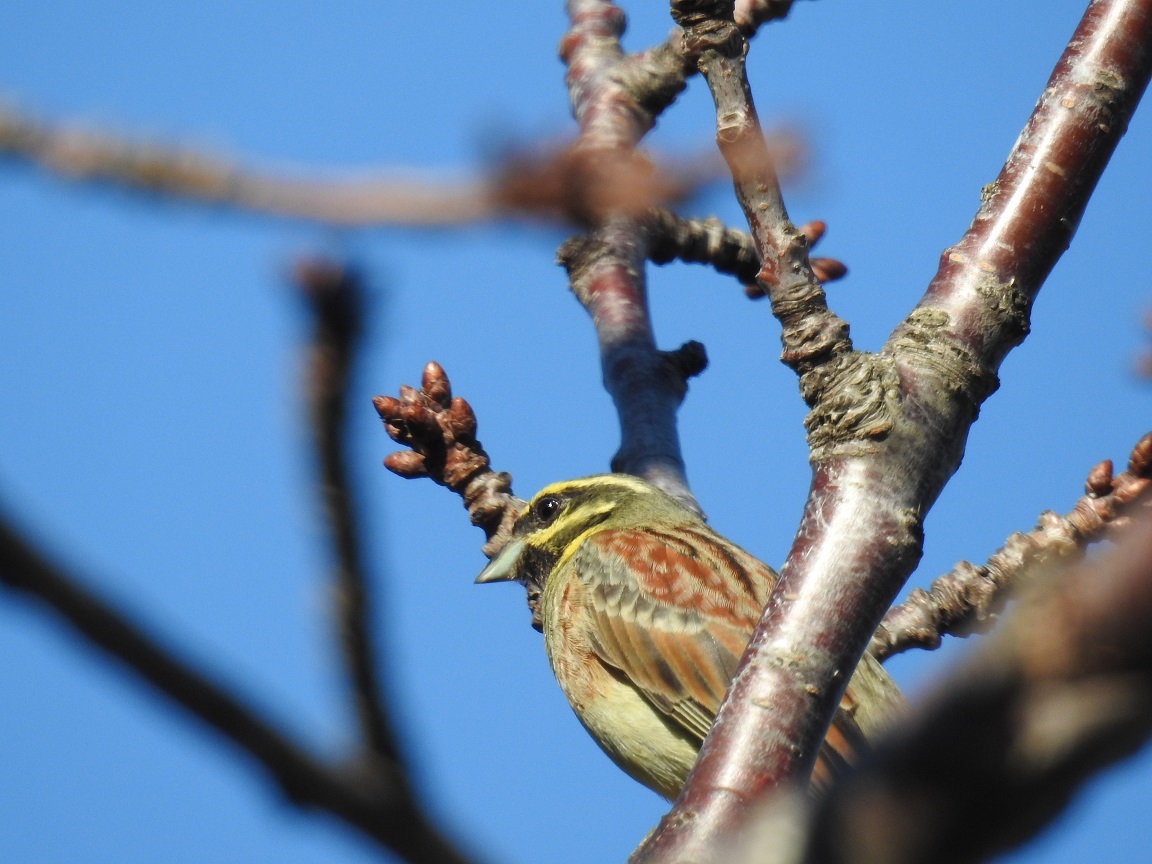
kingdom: Animalia
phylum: Chordata
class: Aves
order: Passeriformes
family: Emberizidae
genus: Emberiza
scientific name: Emberiza cirlus
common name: Cirl bunting
